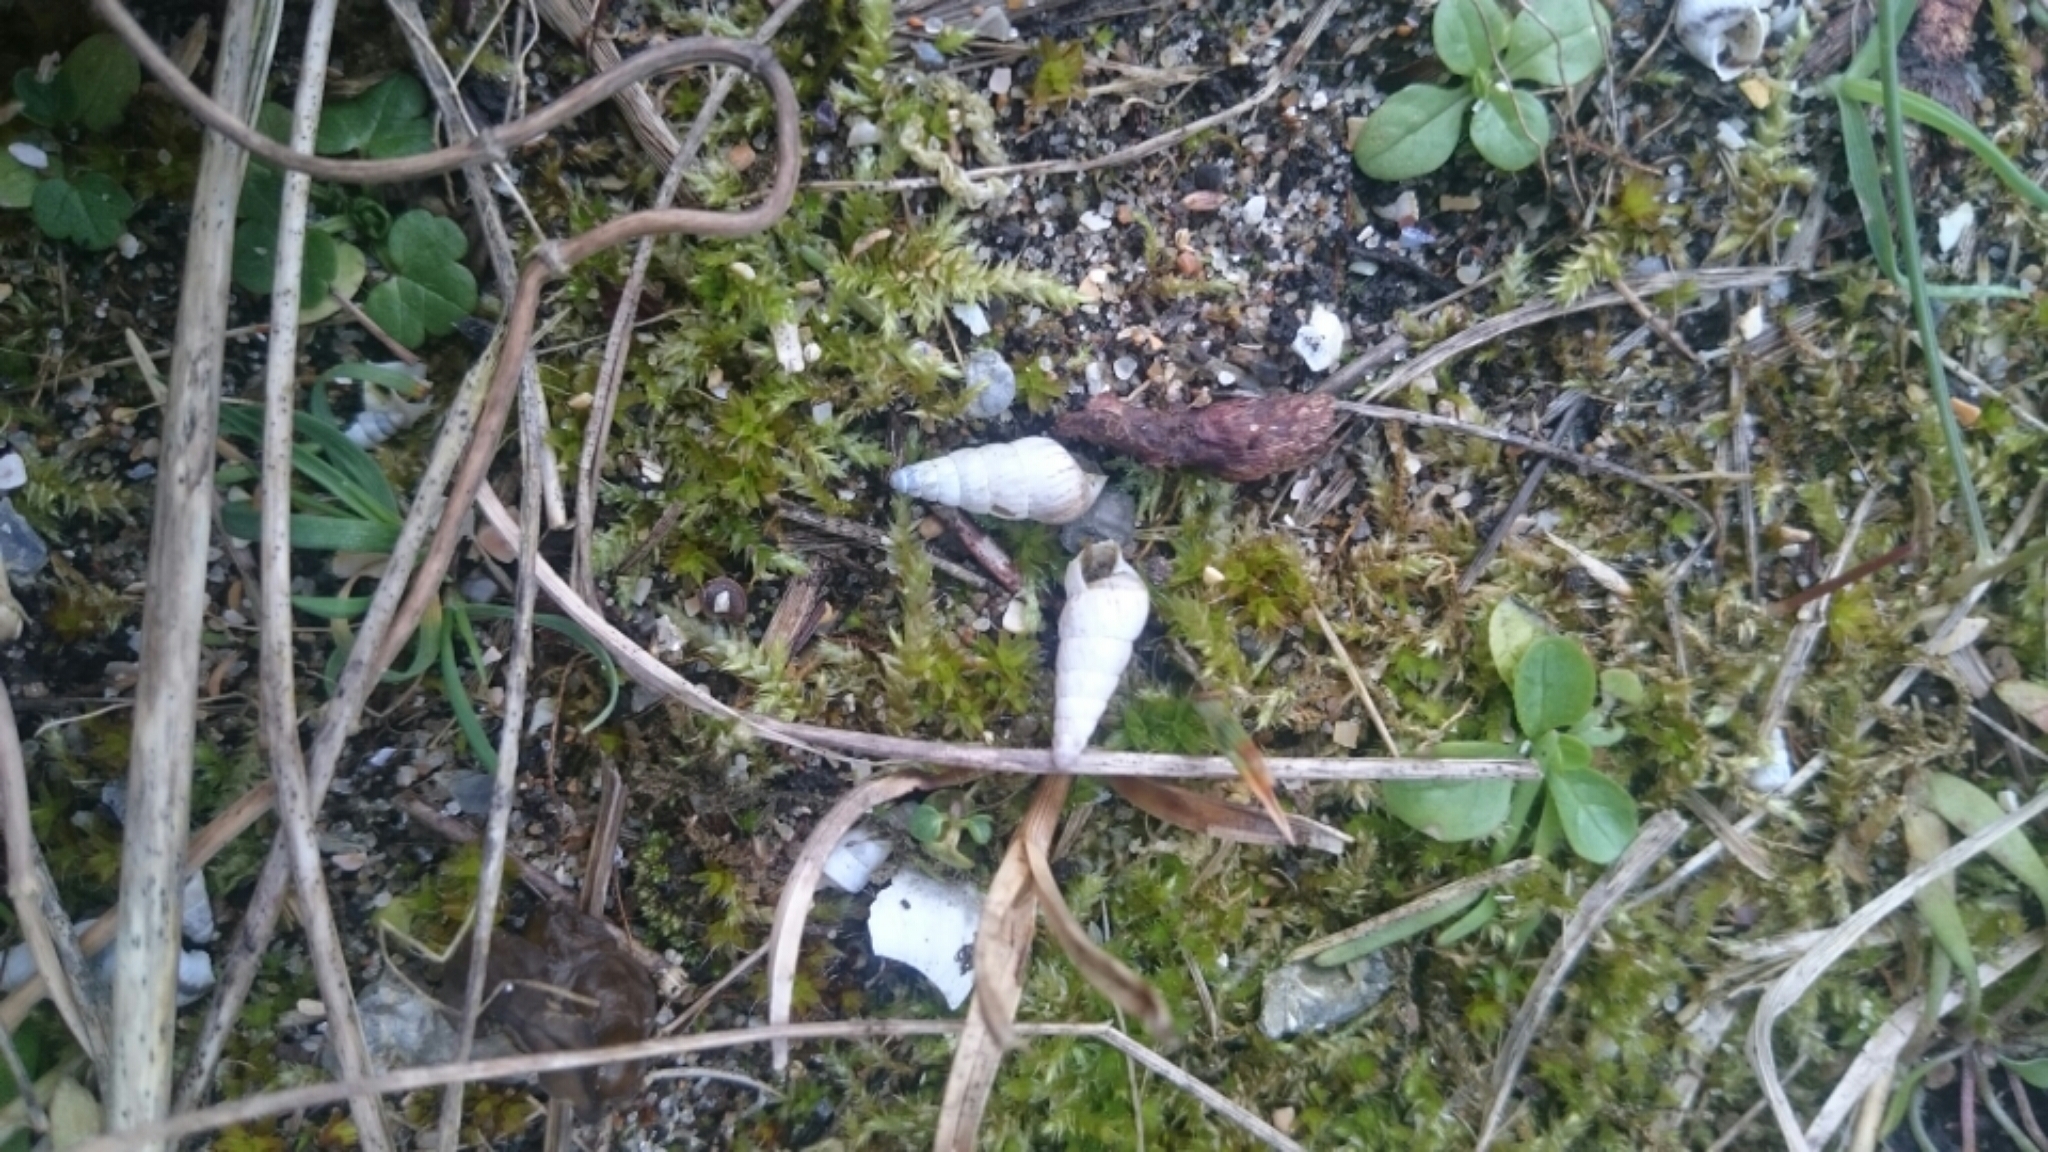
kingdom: Animalia
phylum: Mollusca
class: Gastropoda
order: Stylommatophora
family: Geomitridae
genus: Cochlicella
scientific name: Cochlicella acuta
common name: Pointed snail
